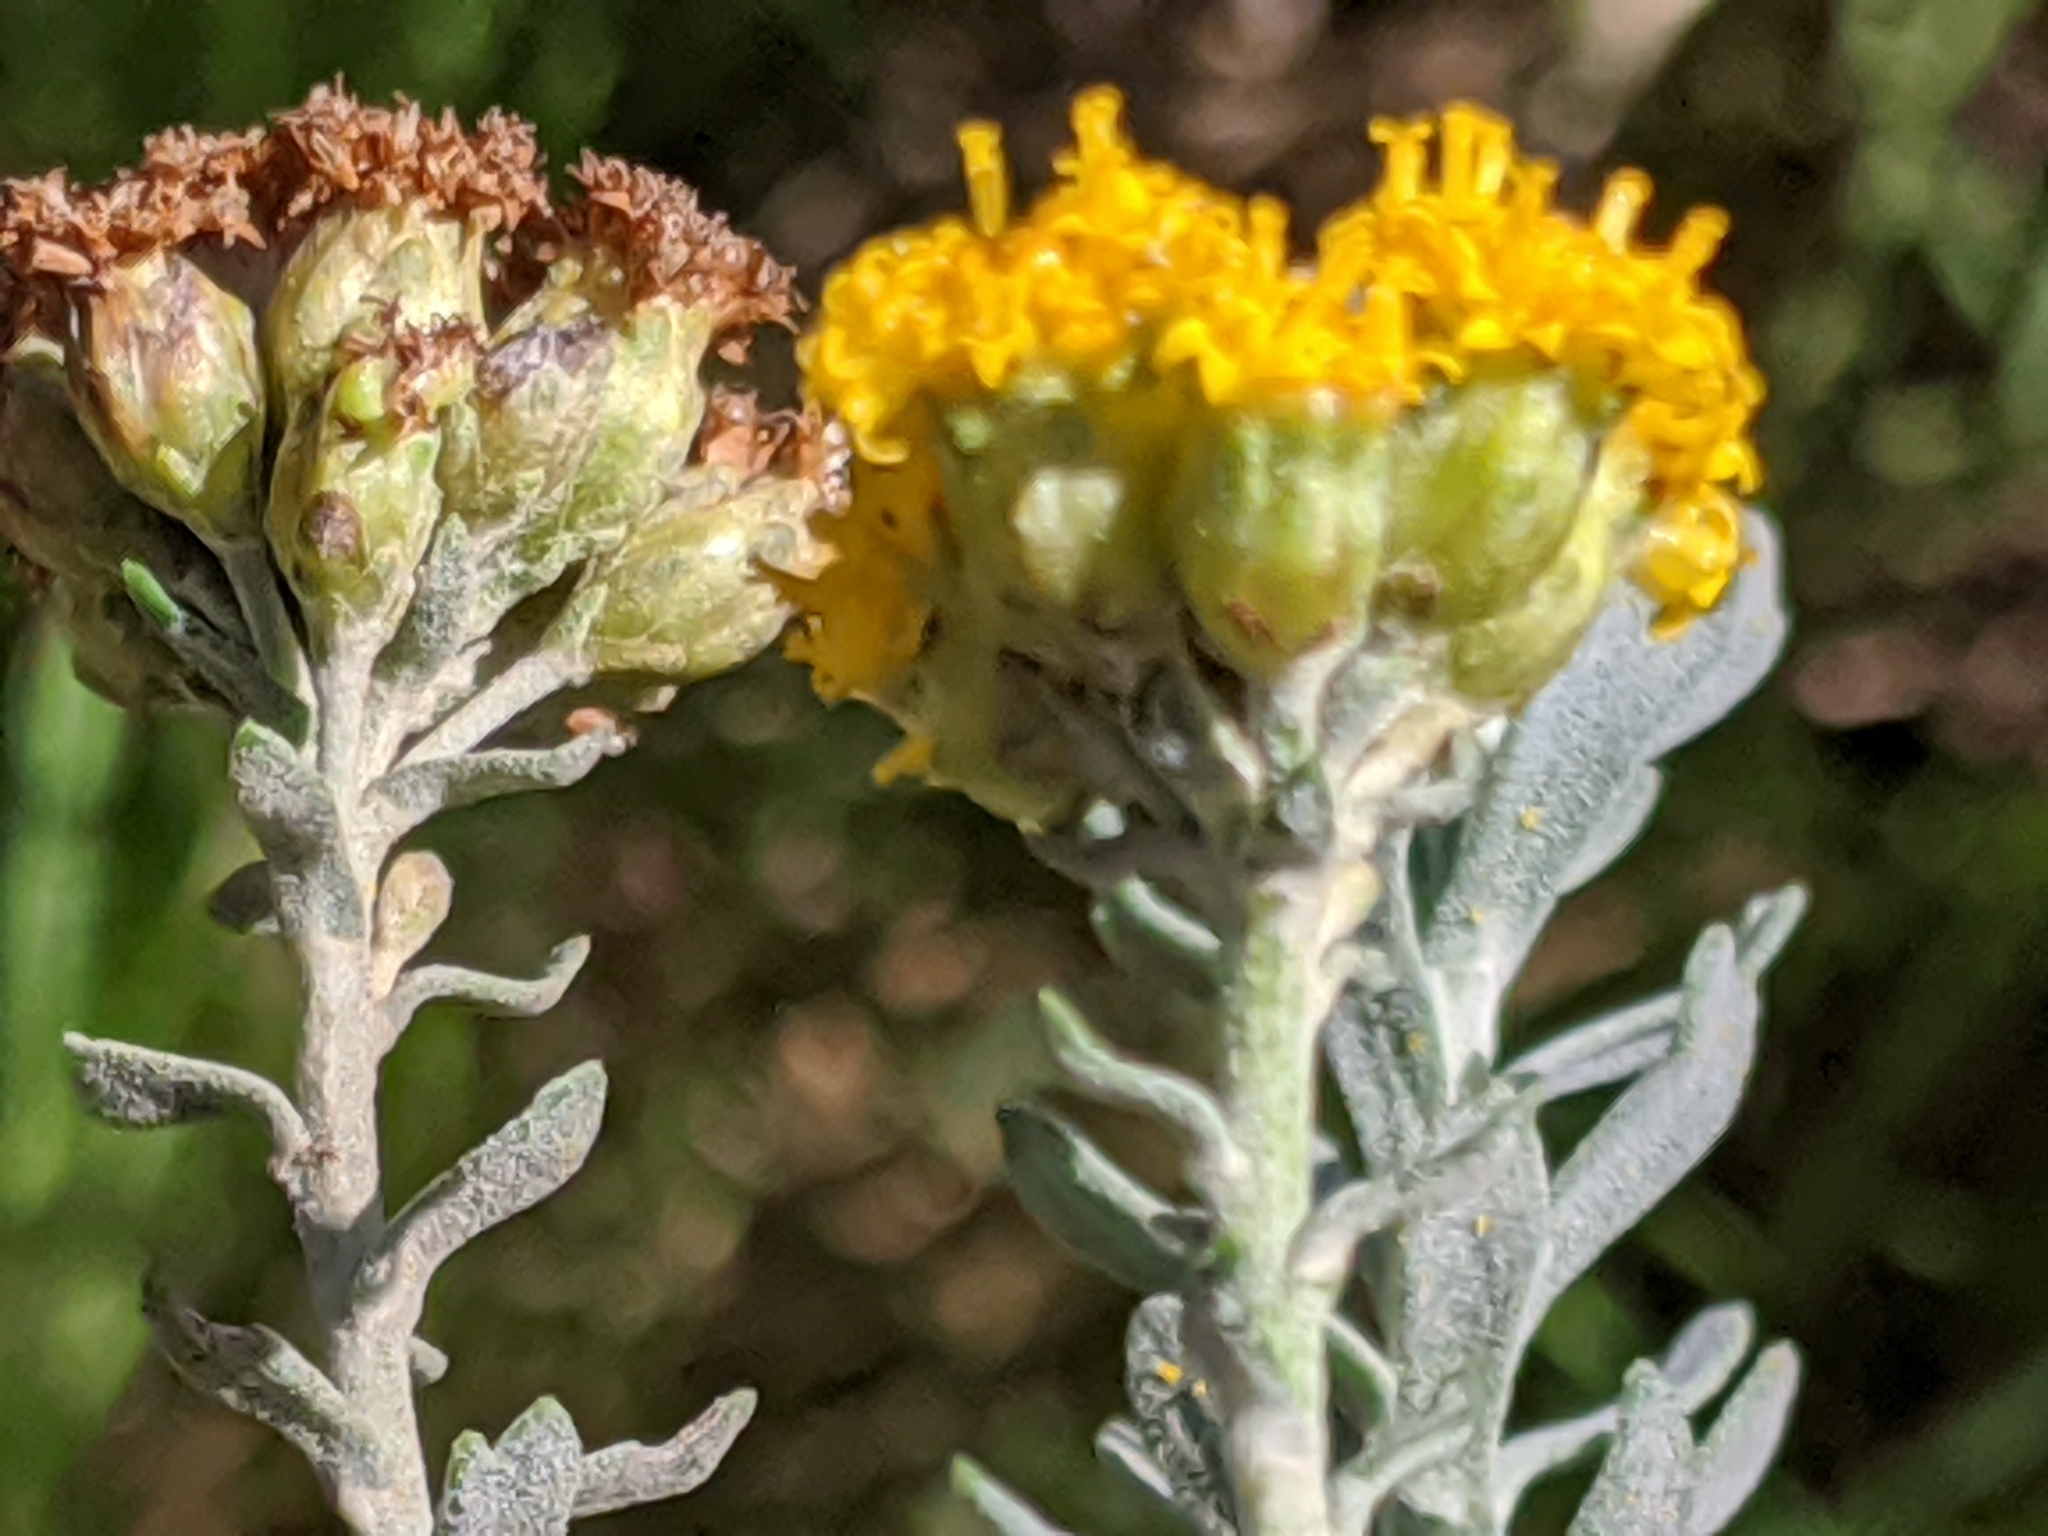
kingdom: Plantae
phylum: Tracheophyta
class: Magnoliopsida
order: Asterales
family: Asteraceae
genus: Athanasia
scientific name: Athanasia trifurcata
